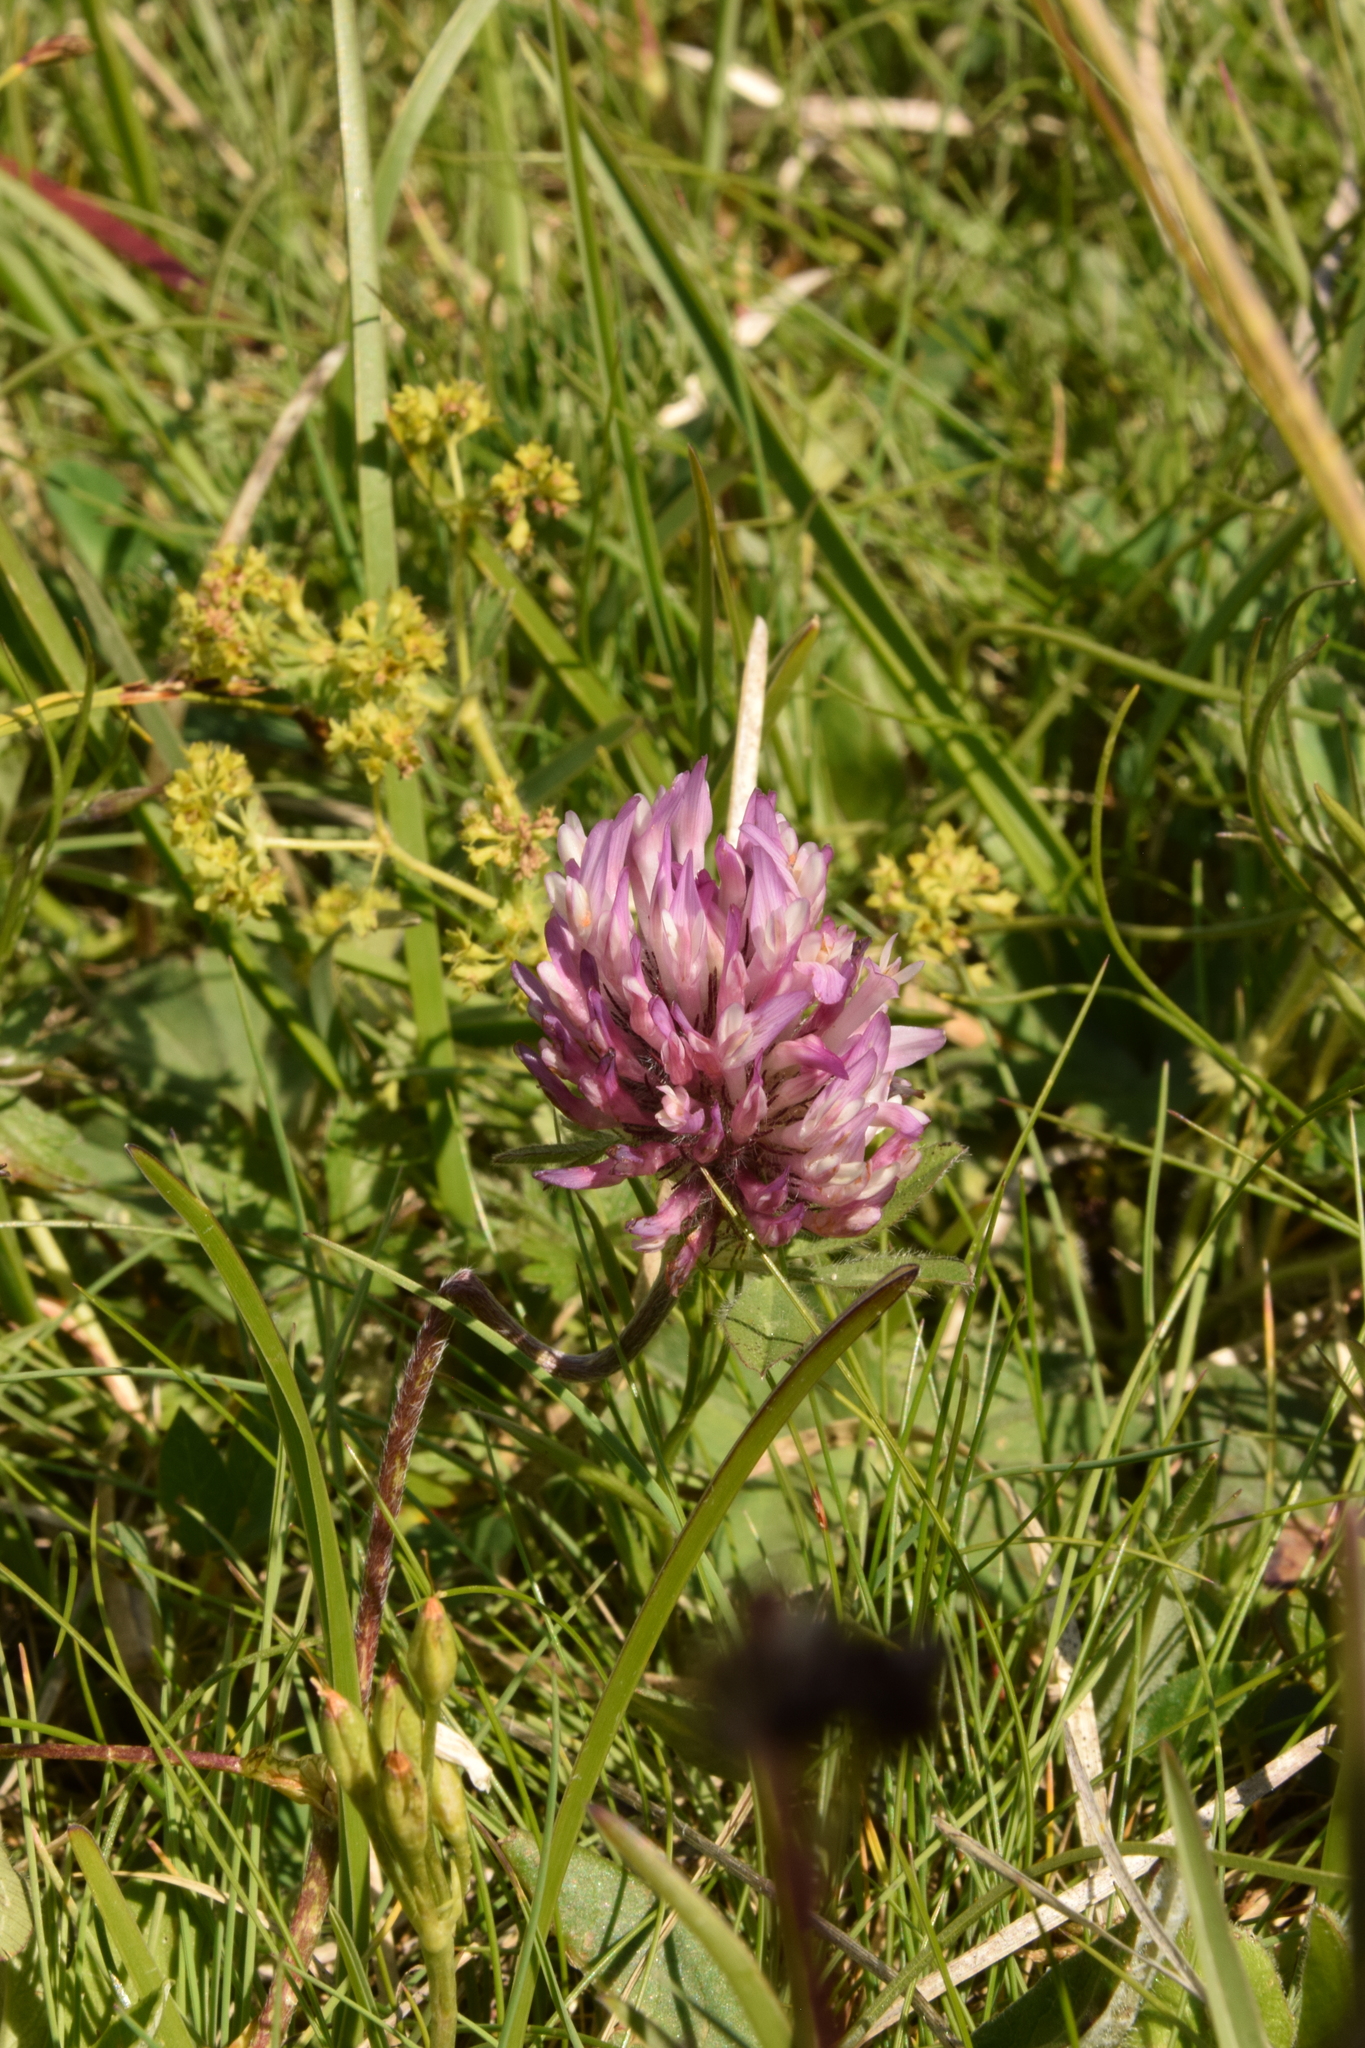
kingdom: Plantae
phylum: Tracheophyta
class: Magnoliopsida
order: Fabales
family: Fabaceae
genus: Trifolium
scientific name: Trifolium pratense
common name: Red clover
